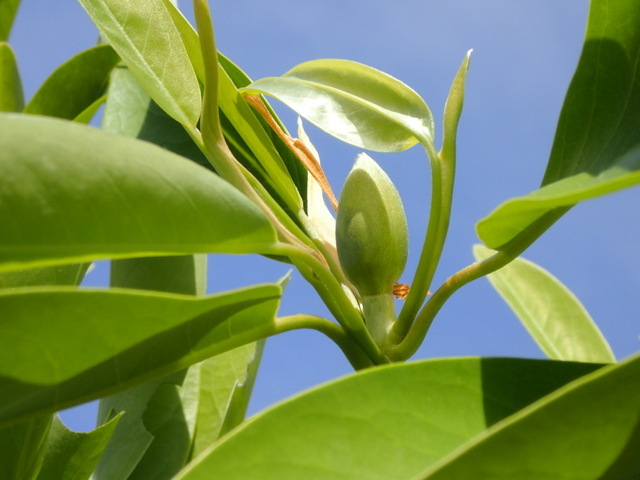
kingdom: Plantae
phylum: Tracheophyta
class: Magnoliopsida
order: Magnoliales
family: Magnoliaceae
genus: Magnolia
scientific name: Magnolia virginiana
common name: Swamp bay
